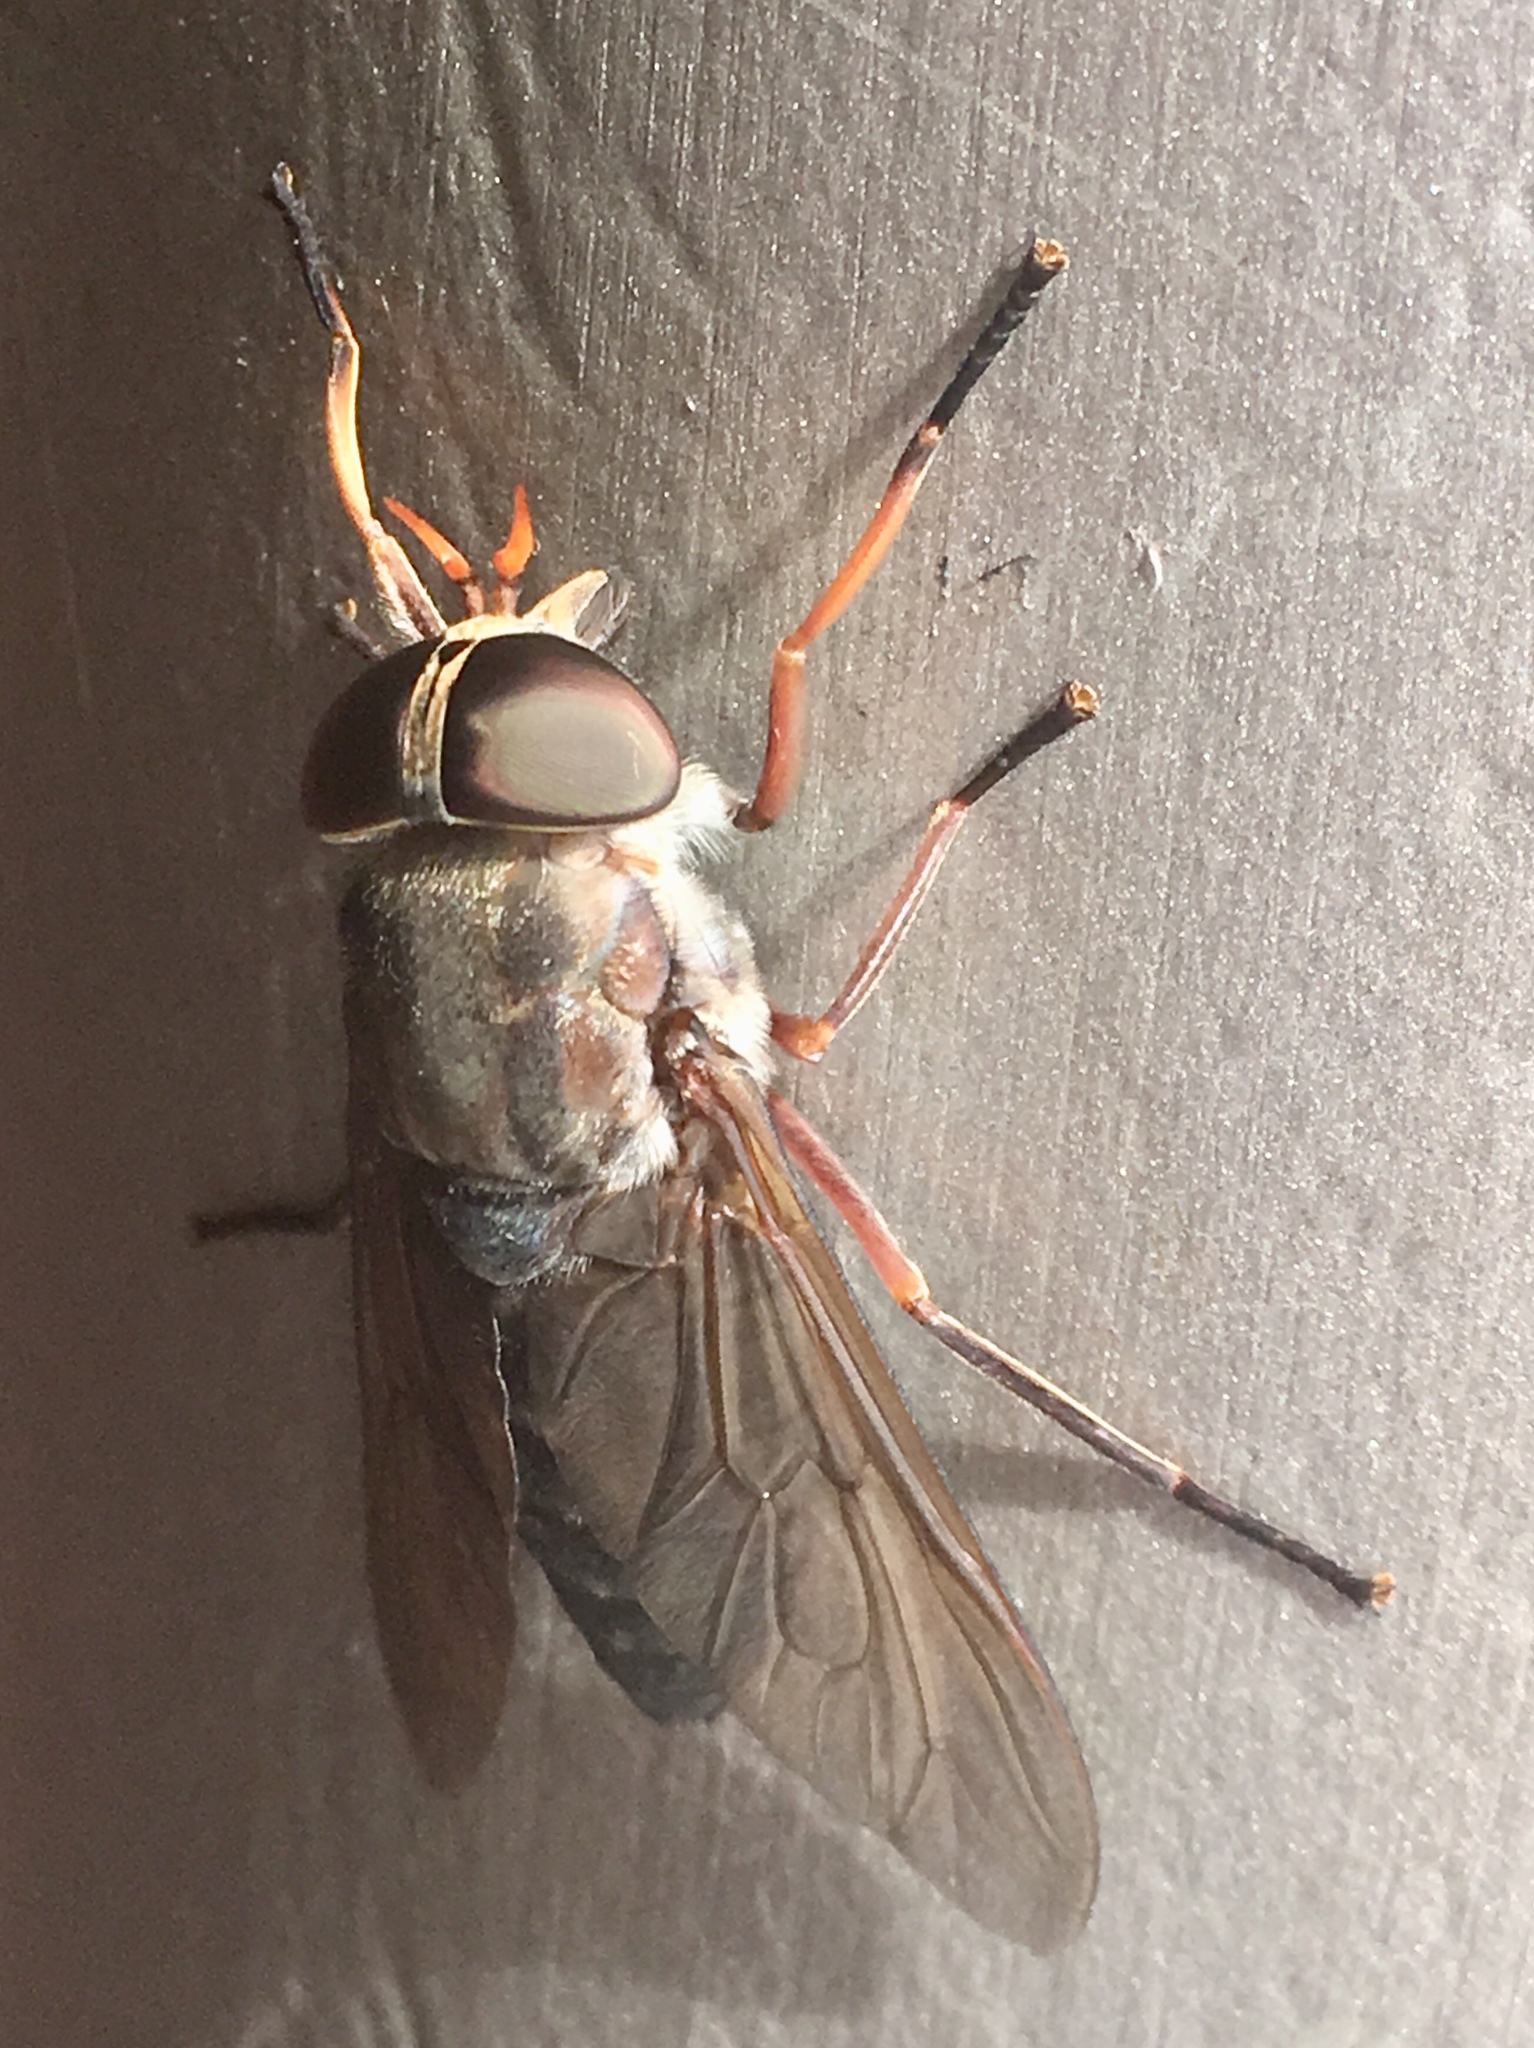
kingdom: Animalia
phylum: Arthropoda
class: Insecta
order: Diptera
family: Tabanidae
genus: Tabanus
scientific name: Tabanus calens
